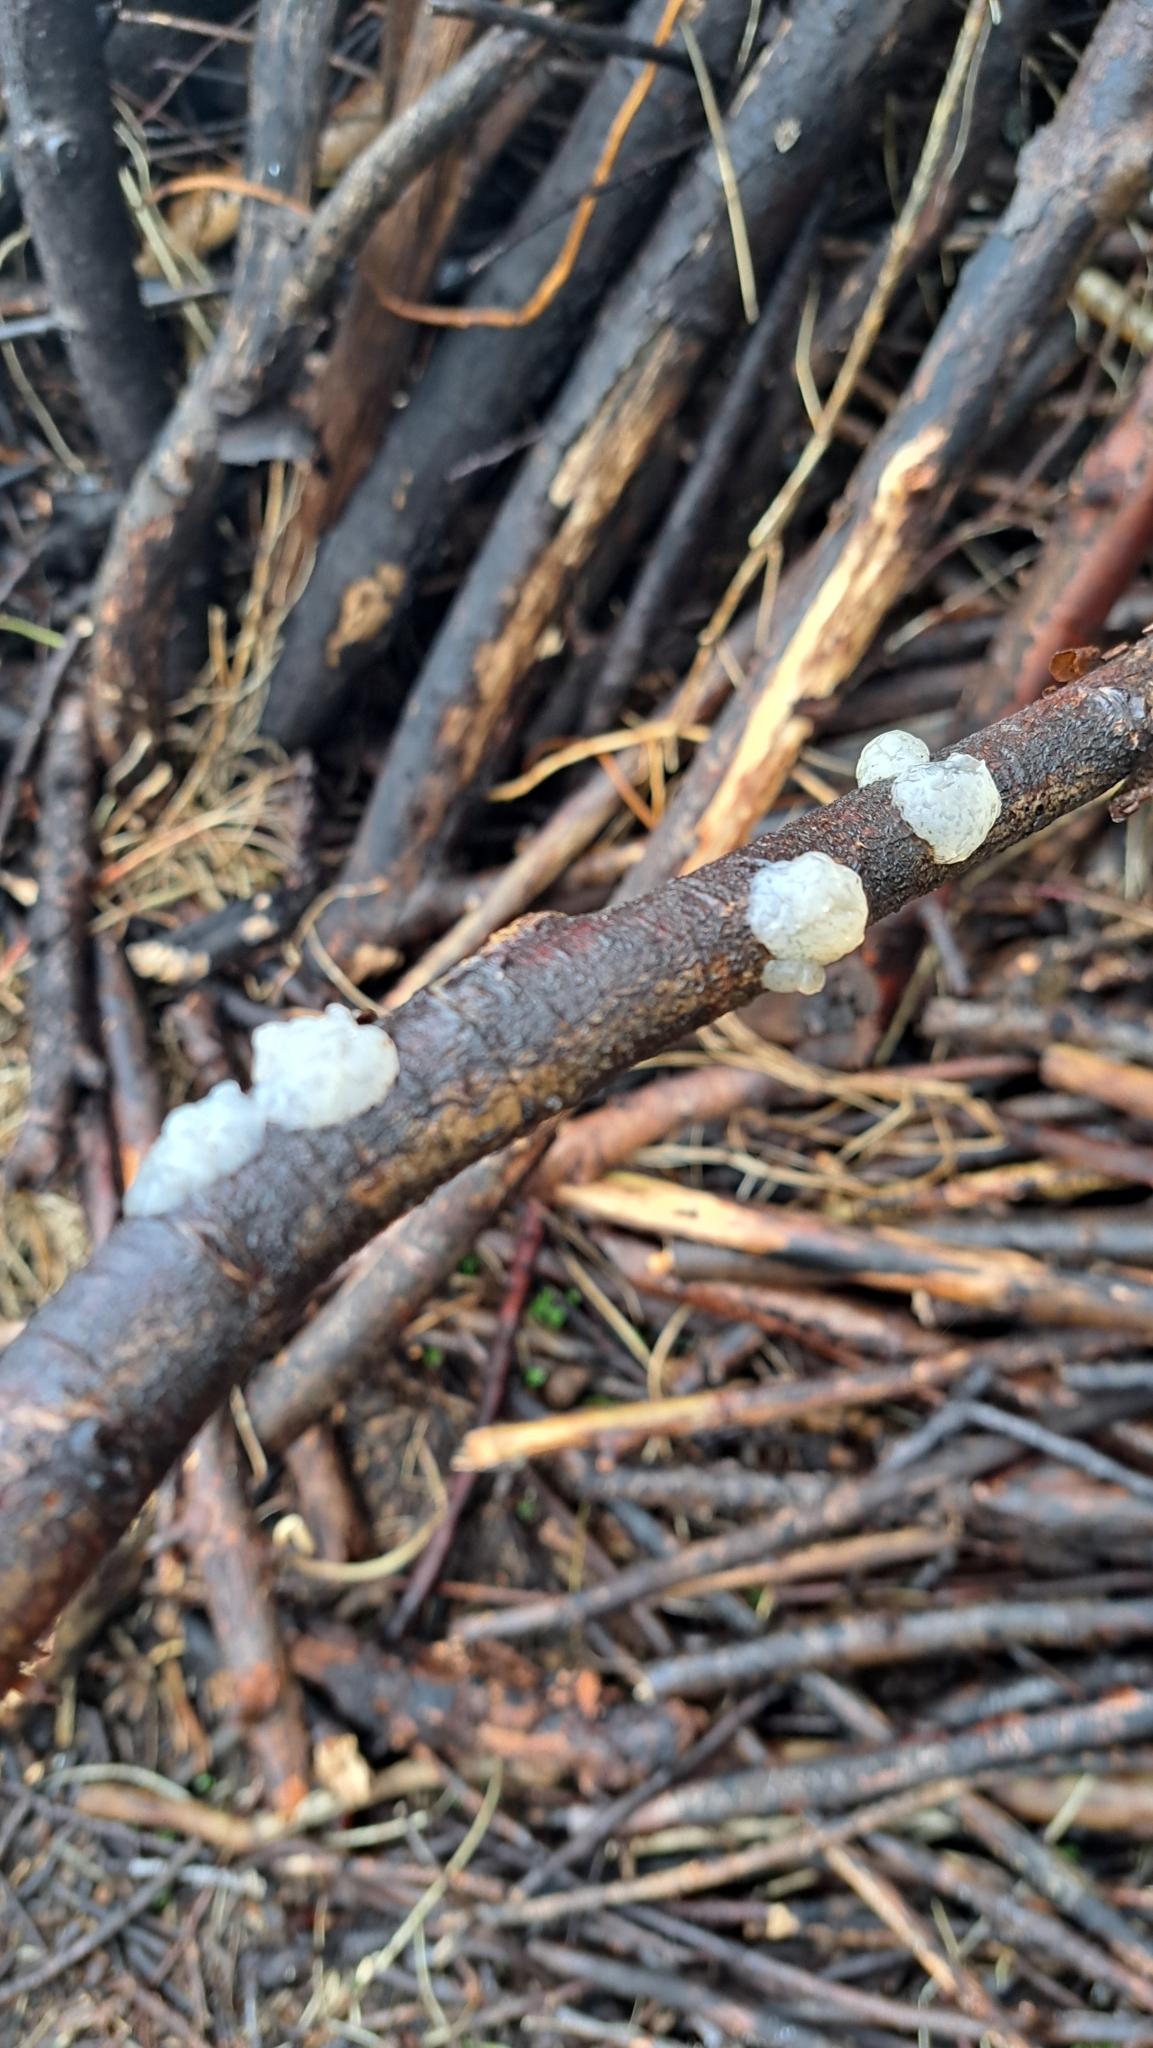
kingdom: Fungi
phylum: Basidiomycota
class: Agaricomycetes
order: Auriculariales
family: Hyaloriaceae
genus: Myxarium
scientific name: Myxarium nucleatum
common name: Crystal brain fungus
